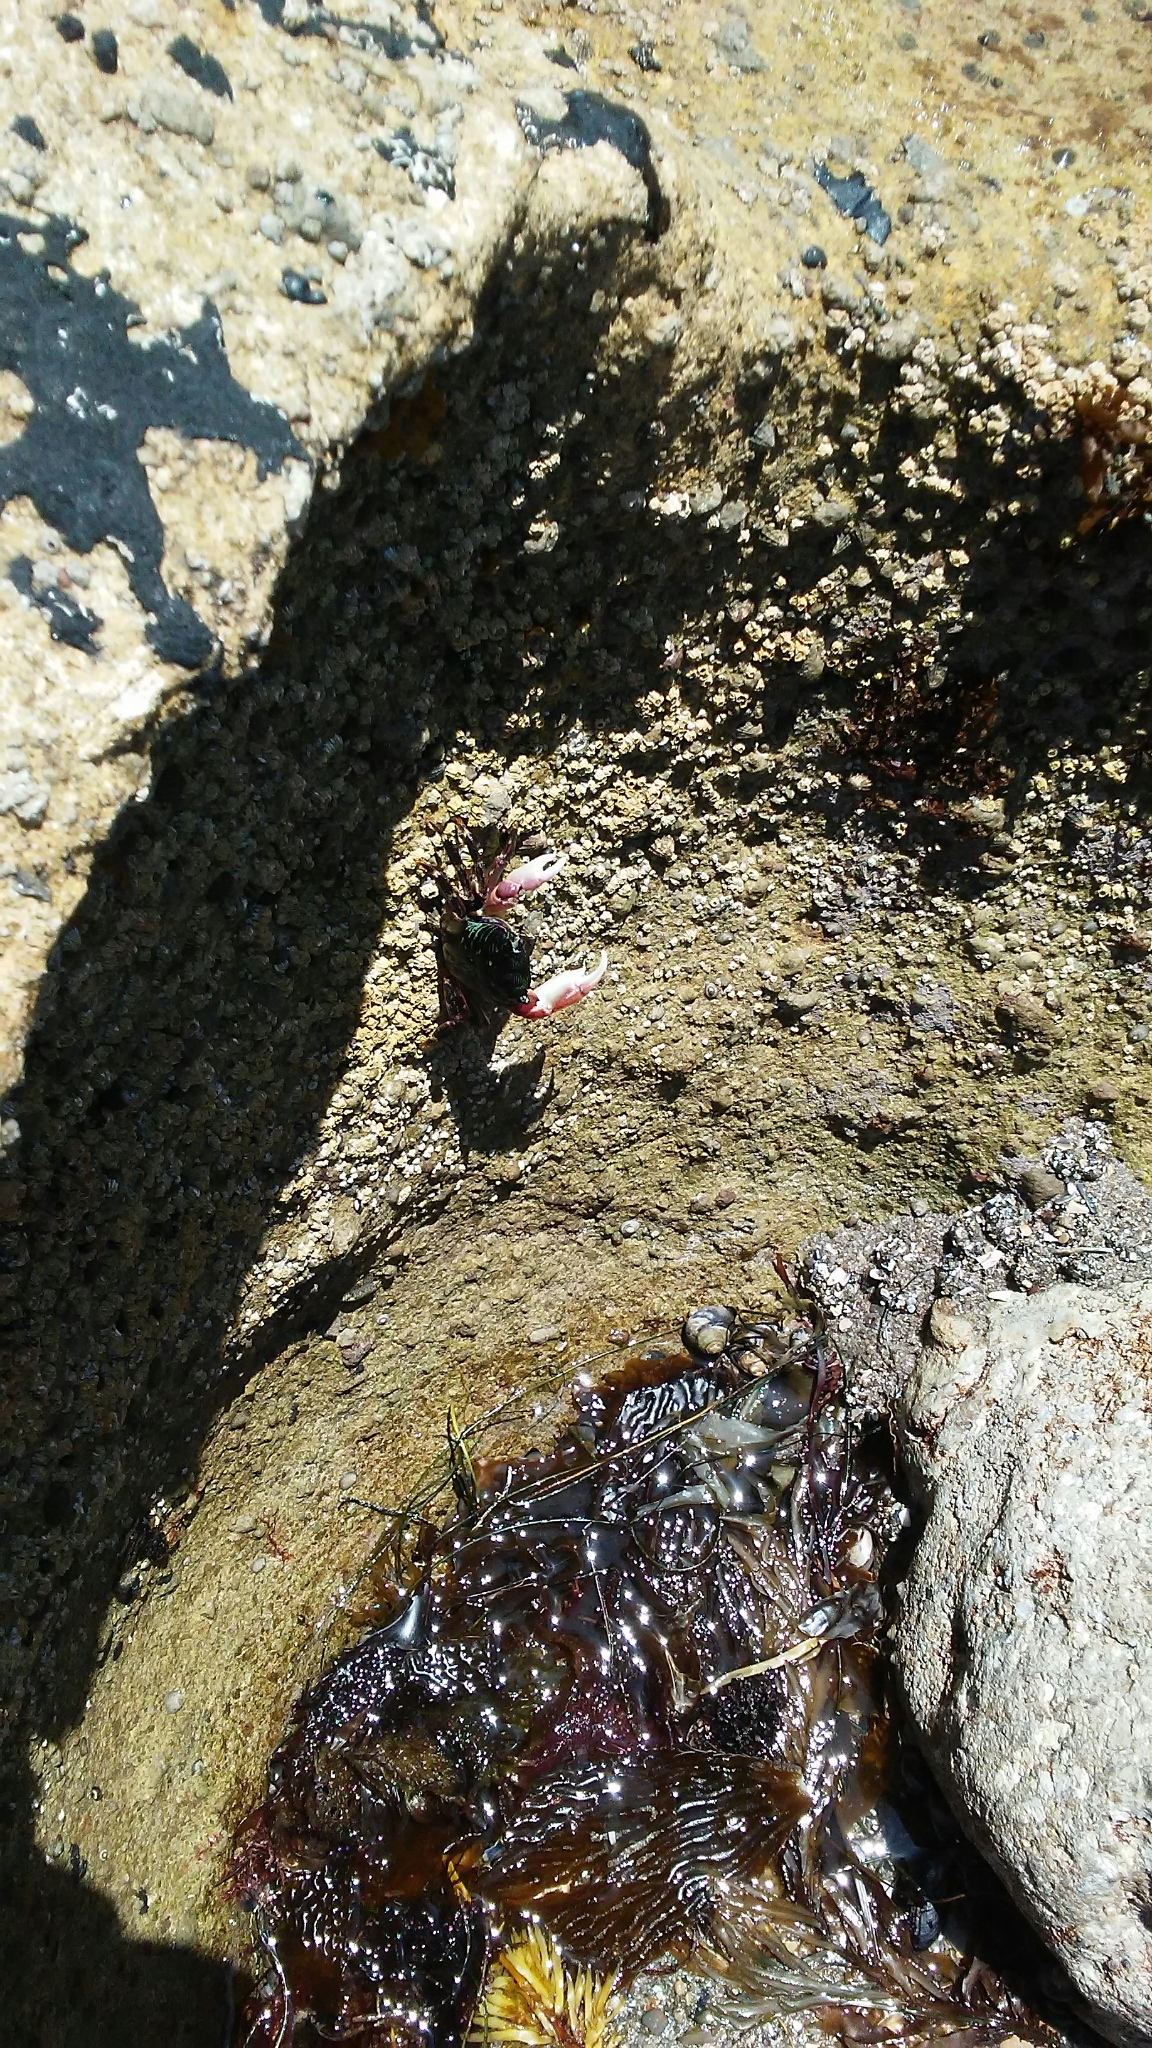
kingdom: Animalia
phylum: Arthropoda
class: Malacostraca
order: Decapoda
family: Grapsidae
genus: Pachygrapsus
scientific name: Pachygrapsus crassipes
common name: Striped shore crab
